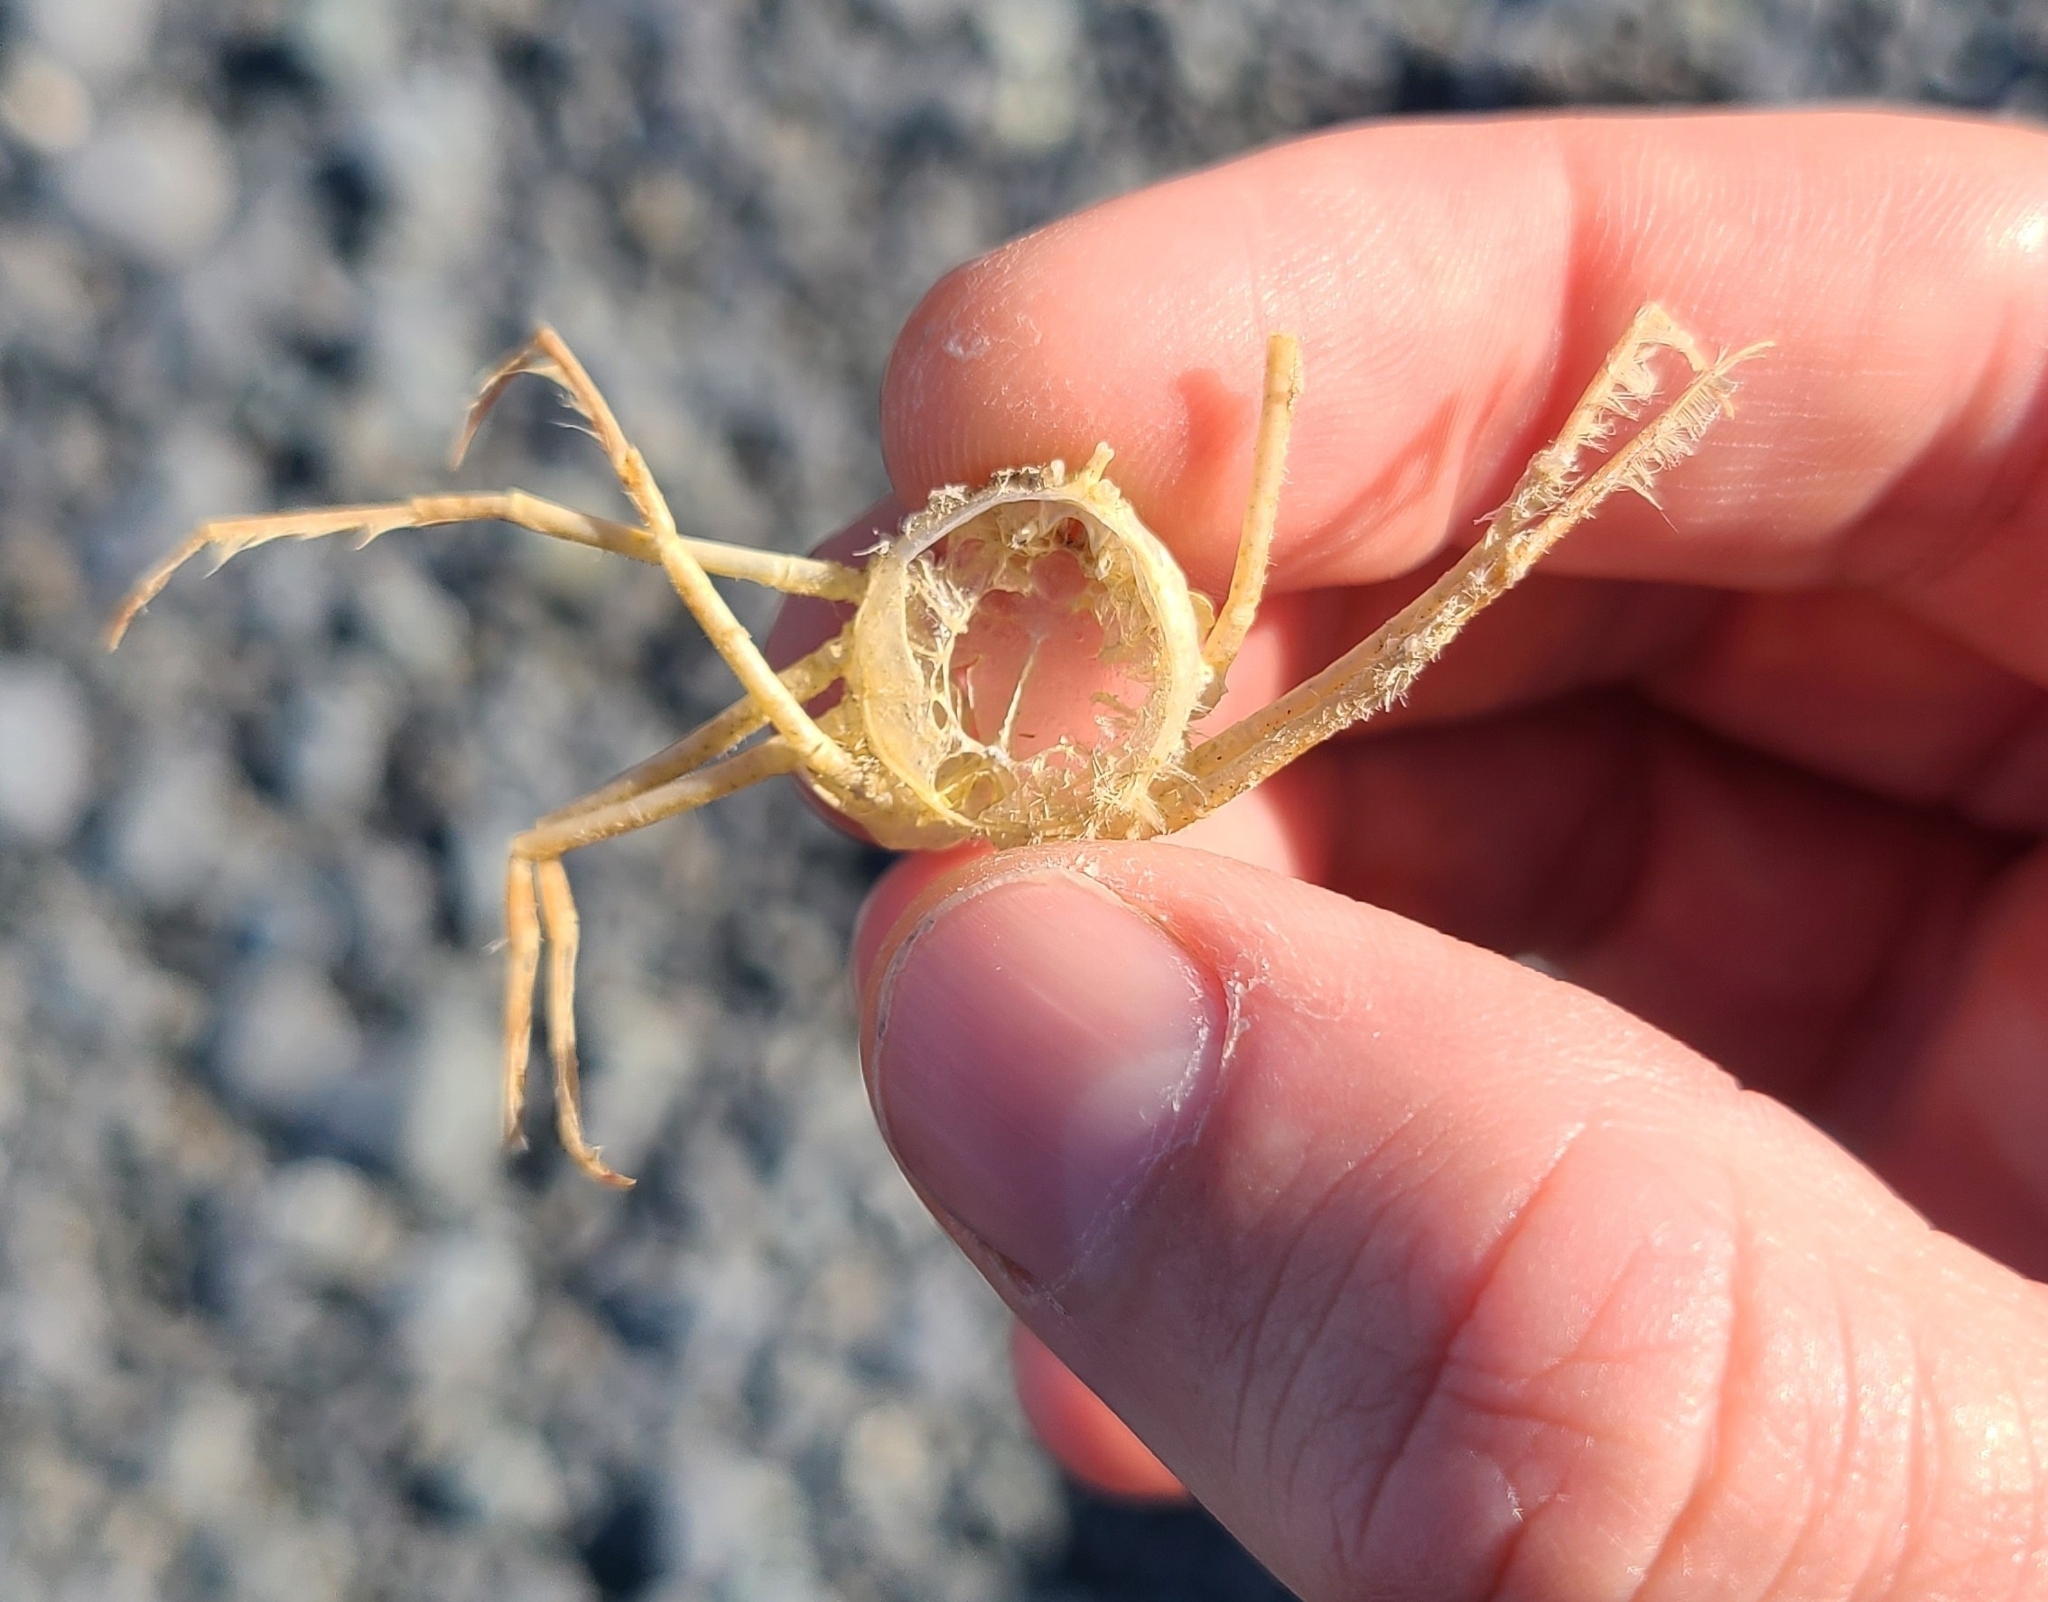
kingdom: Animalia
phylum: Arthropoda
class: Malacostraca
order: Decapoda
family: Hymenosomatidae
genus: Hymenosoma
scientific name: Hymenosoma depressum
